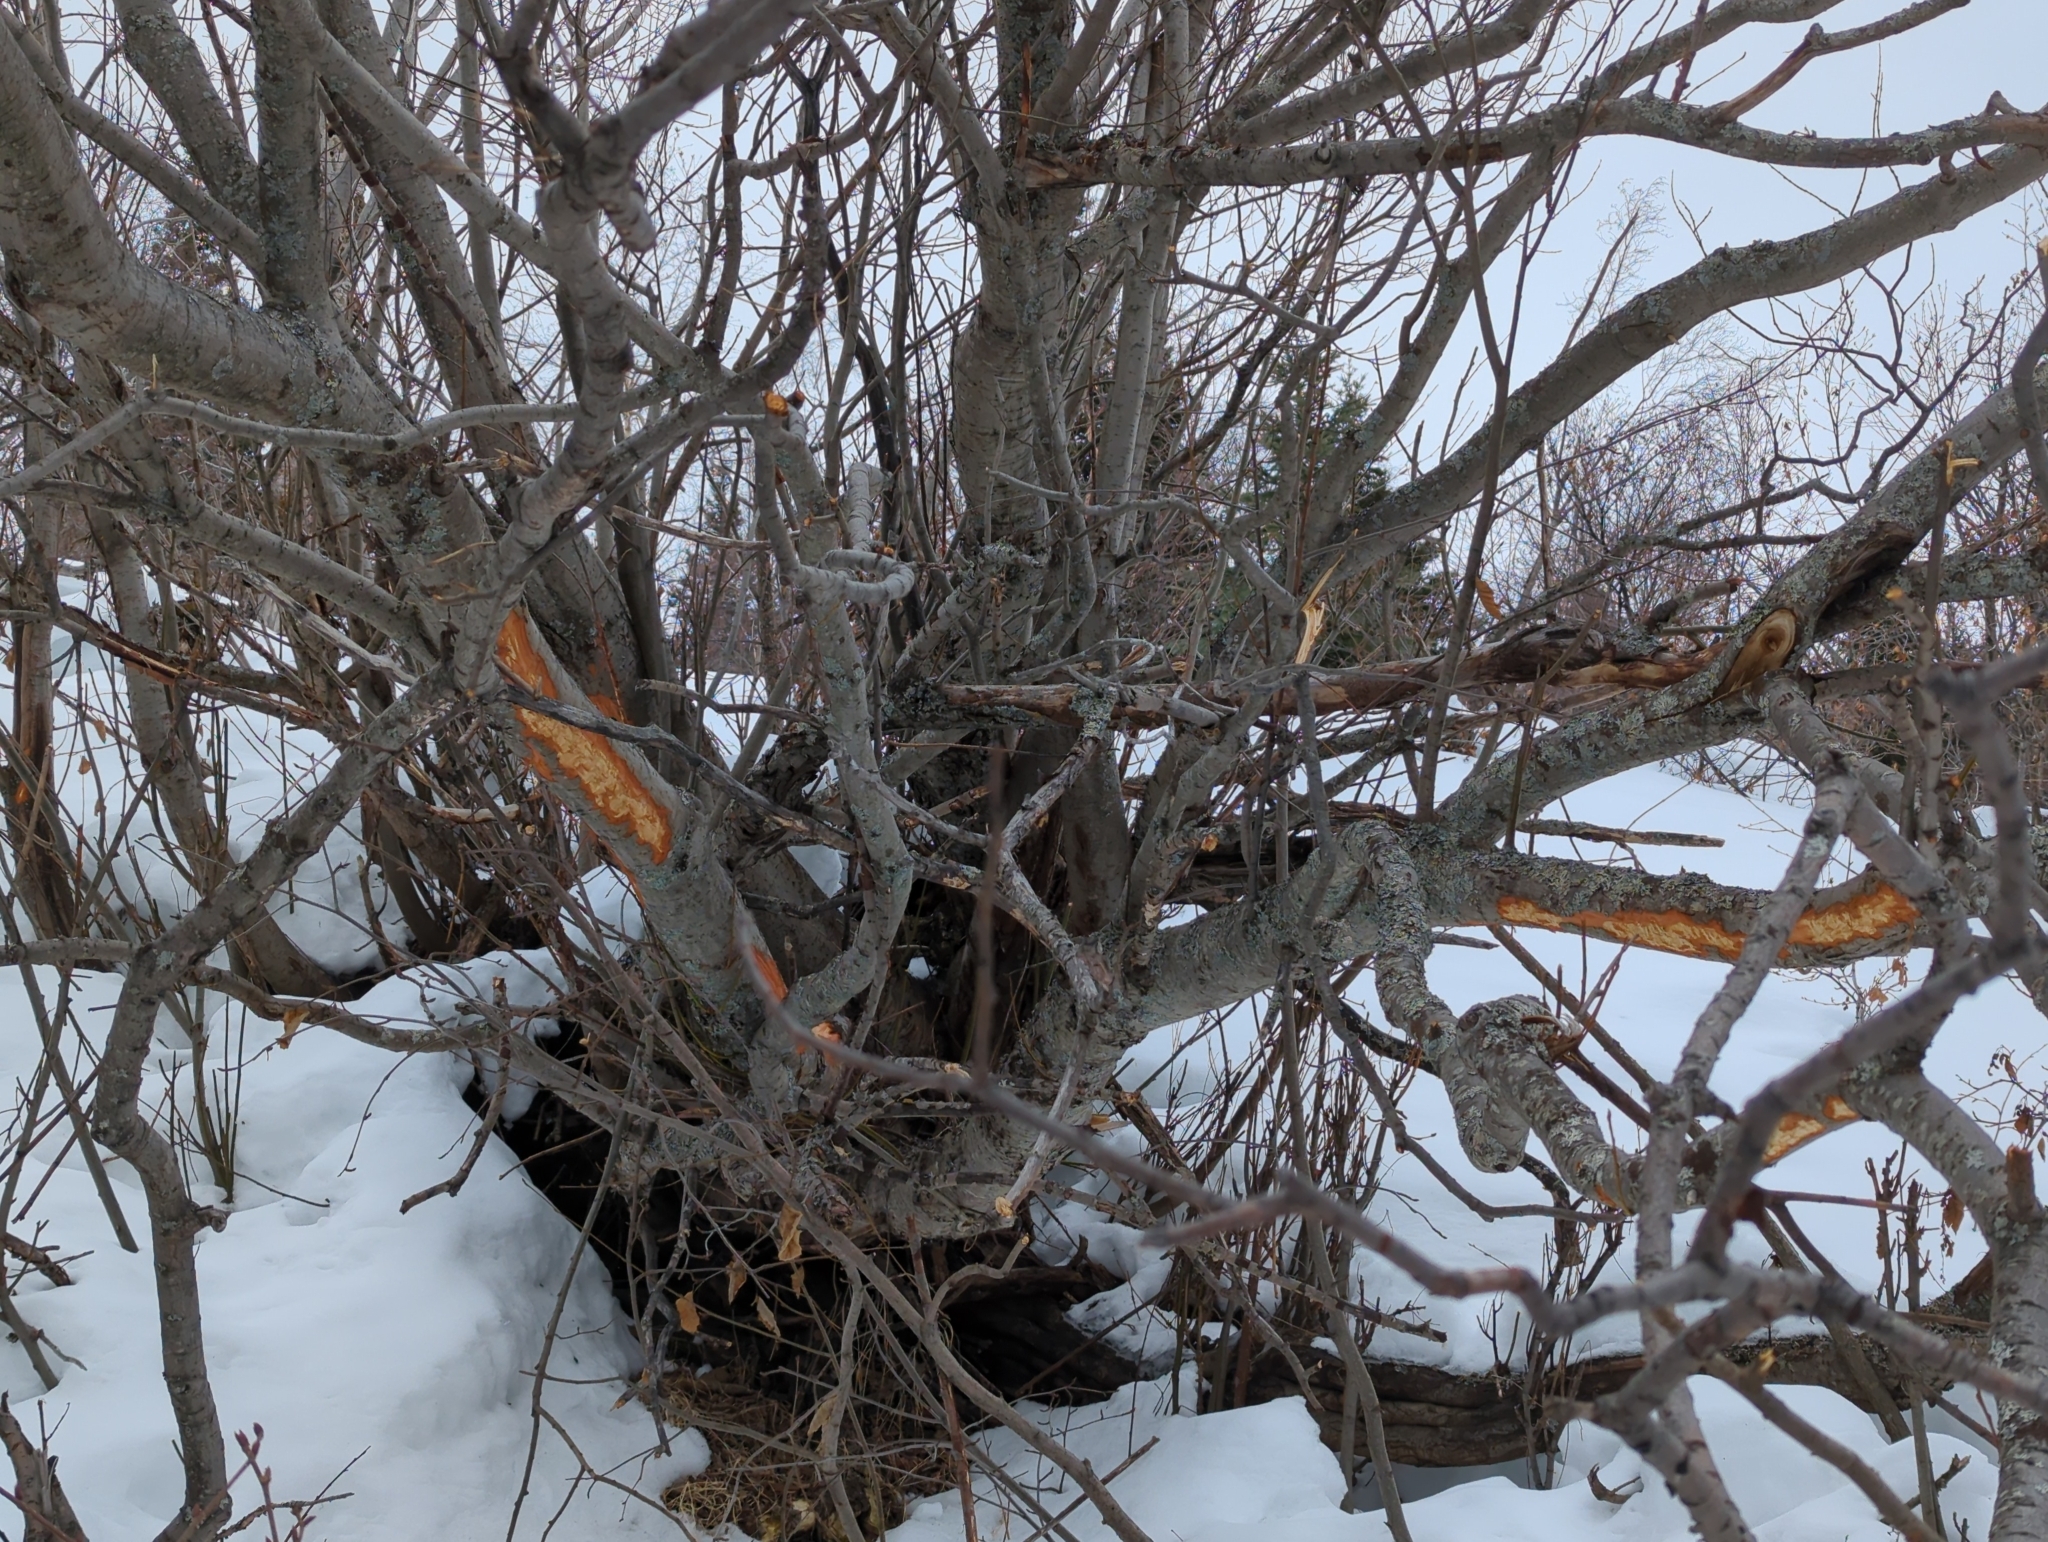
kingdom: Animalia
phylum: Chordata
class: Mammalia
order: Artiodactyla
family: Cervidae
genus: Alces
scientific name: Alces alces
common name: Moose
